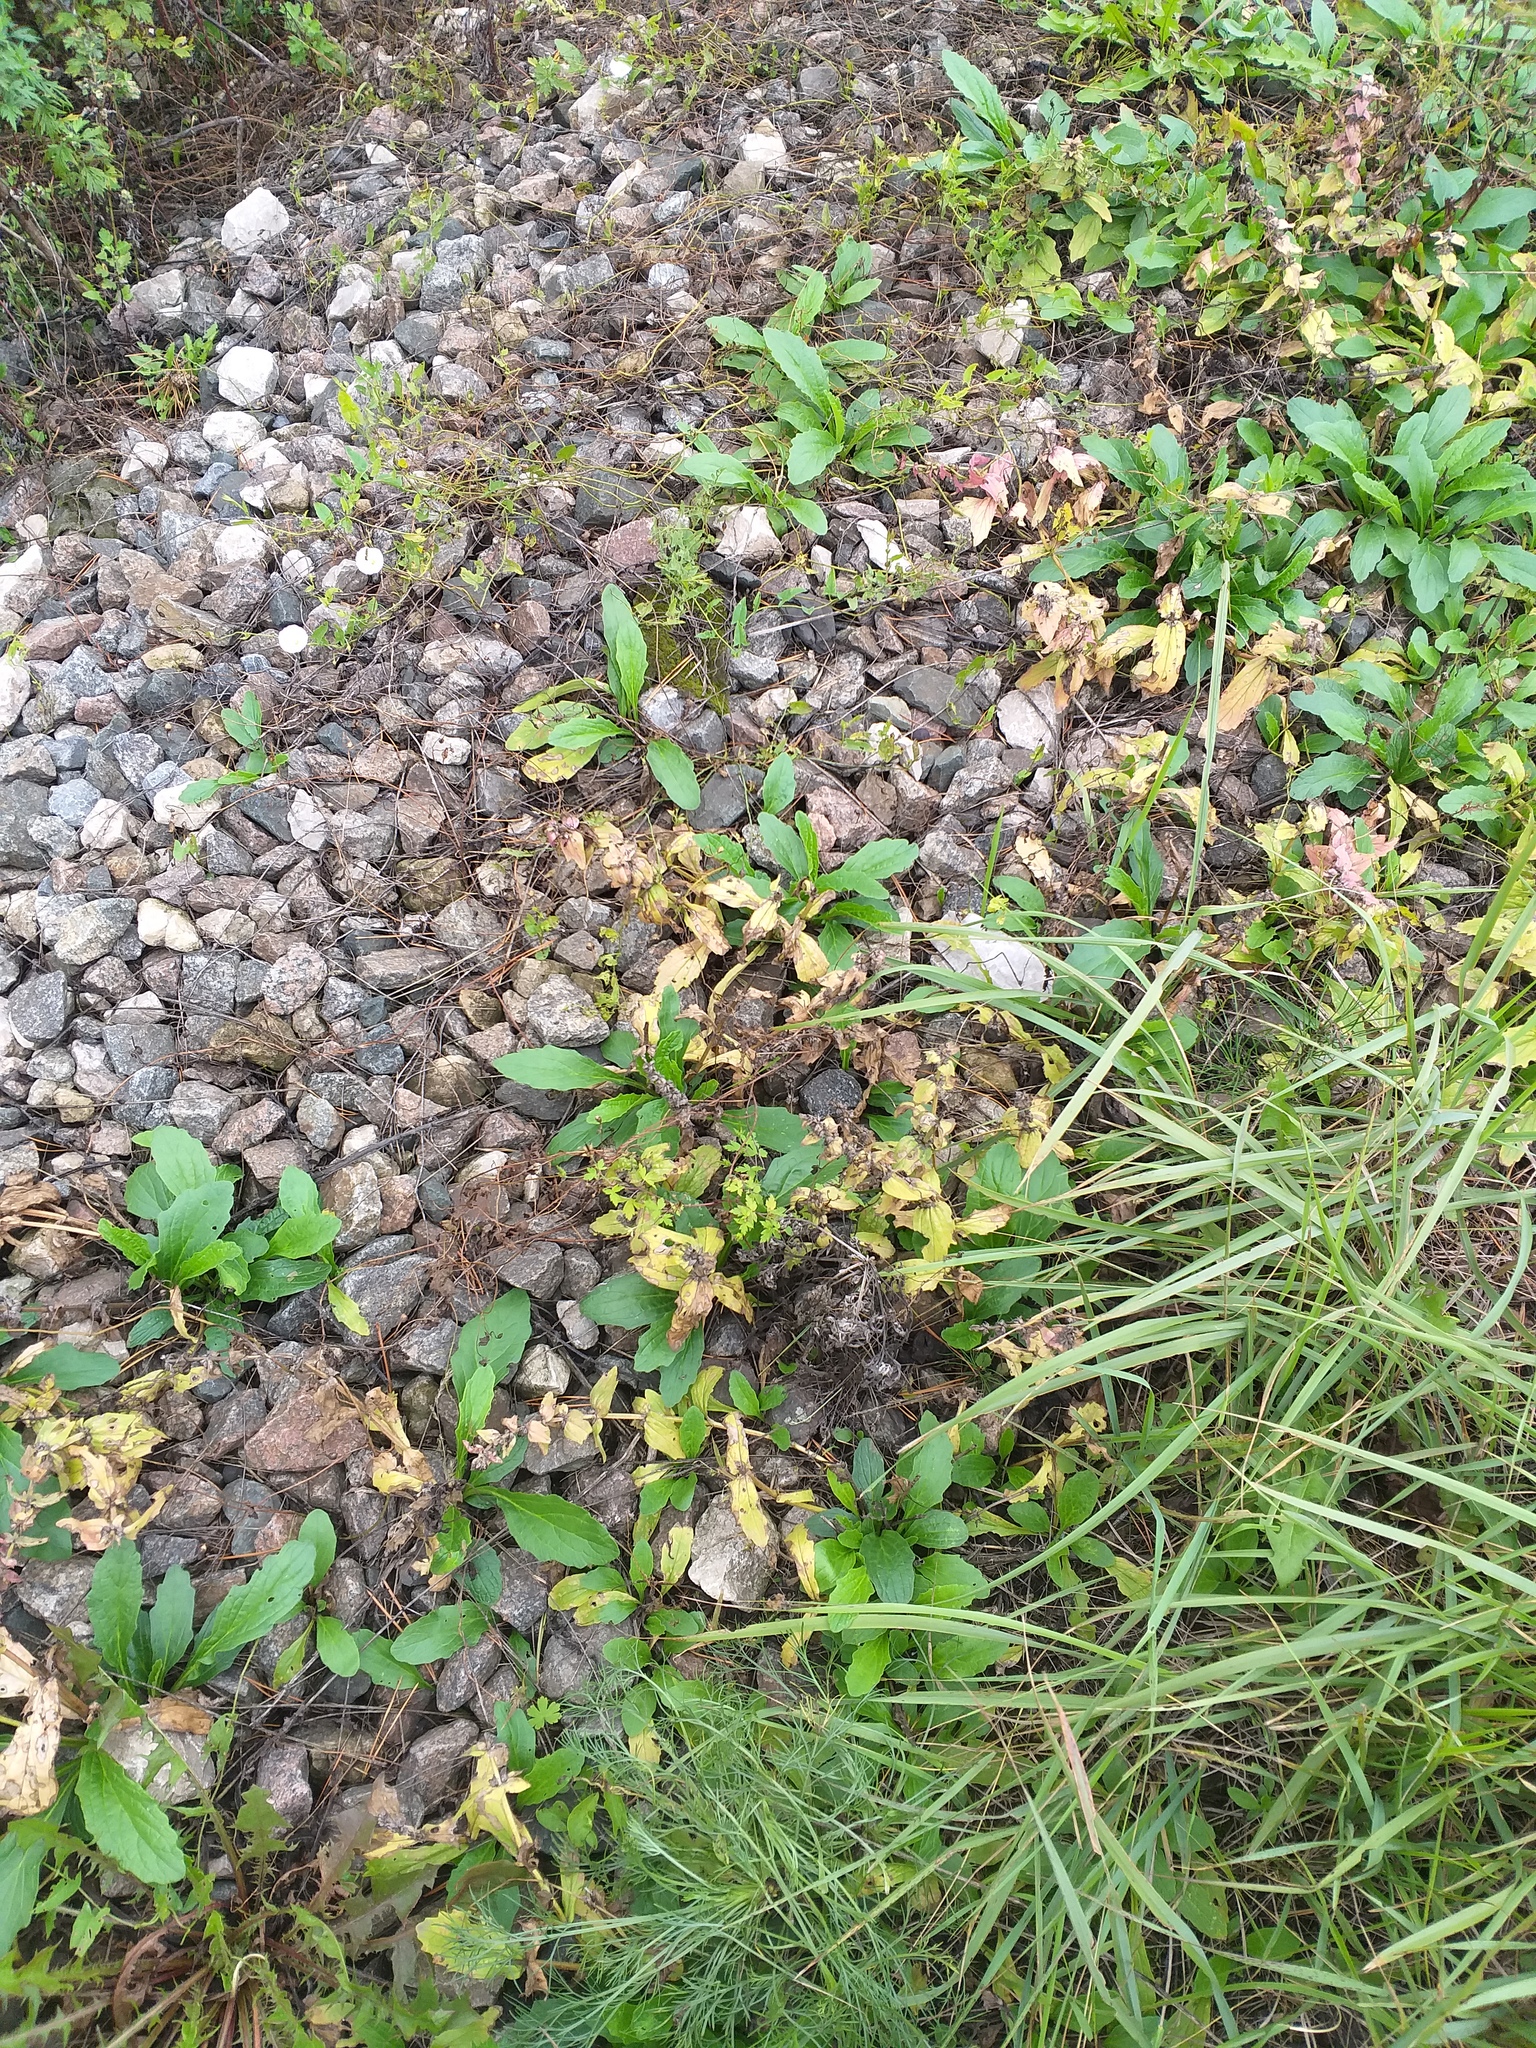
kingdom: Plantae
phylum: Tracheophyta
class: Magnoliopsida
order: Lamiales
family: Lamiaceae
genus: Ajuga
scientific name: Ajuga genevensis
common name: Blue bugle
